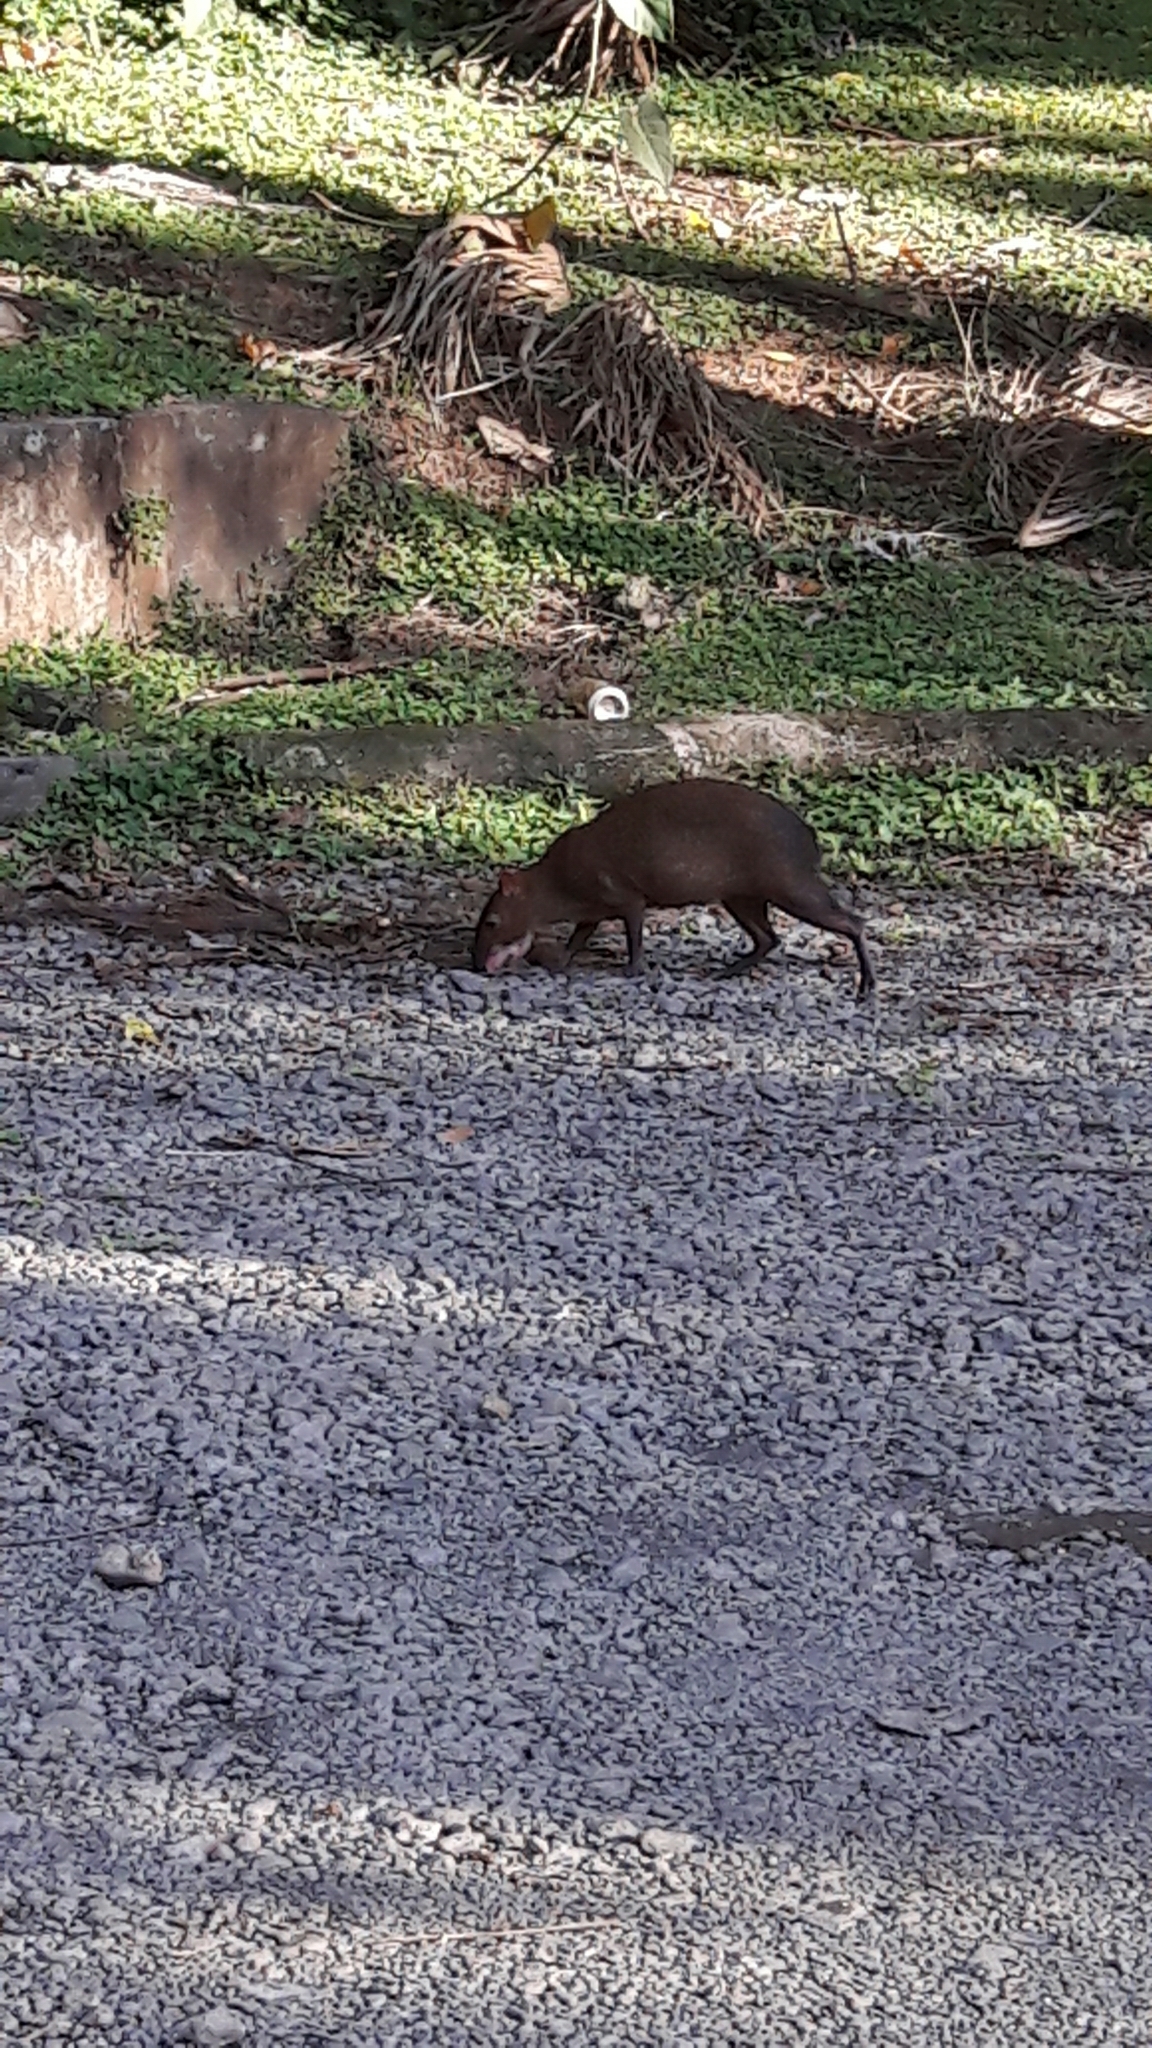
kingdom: Animalia
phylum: Chordata
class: Mammalia
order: Rodentia
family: Dasyproctidae
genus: Dasyprocta
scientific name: Dasyprocta punctata
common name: Central american agouti
